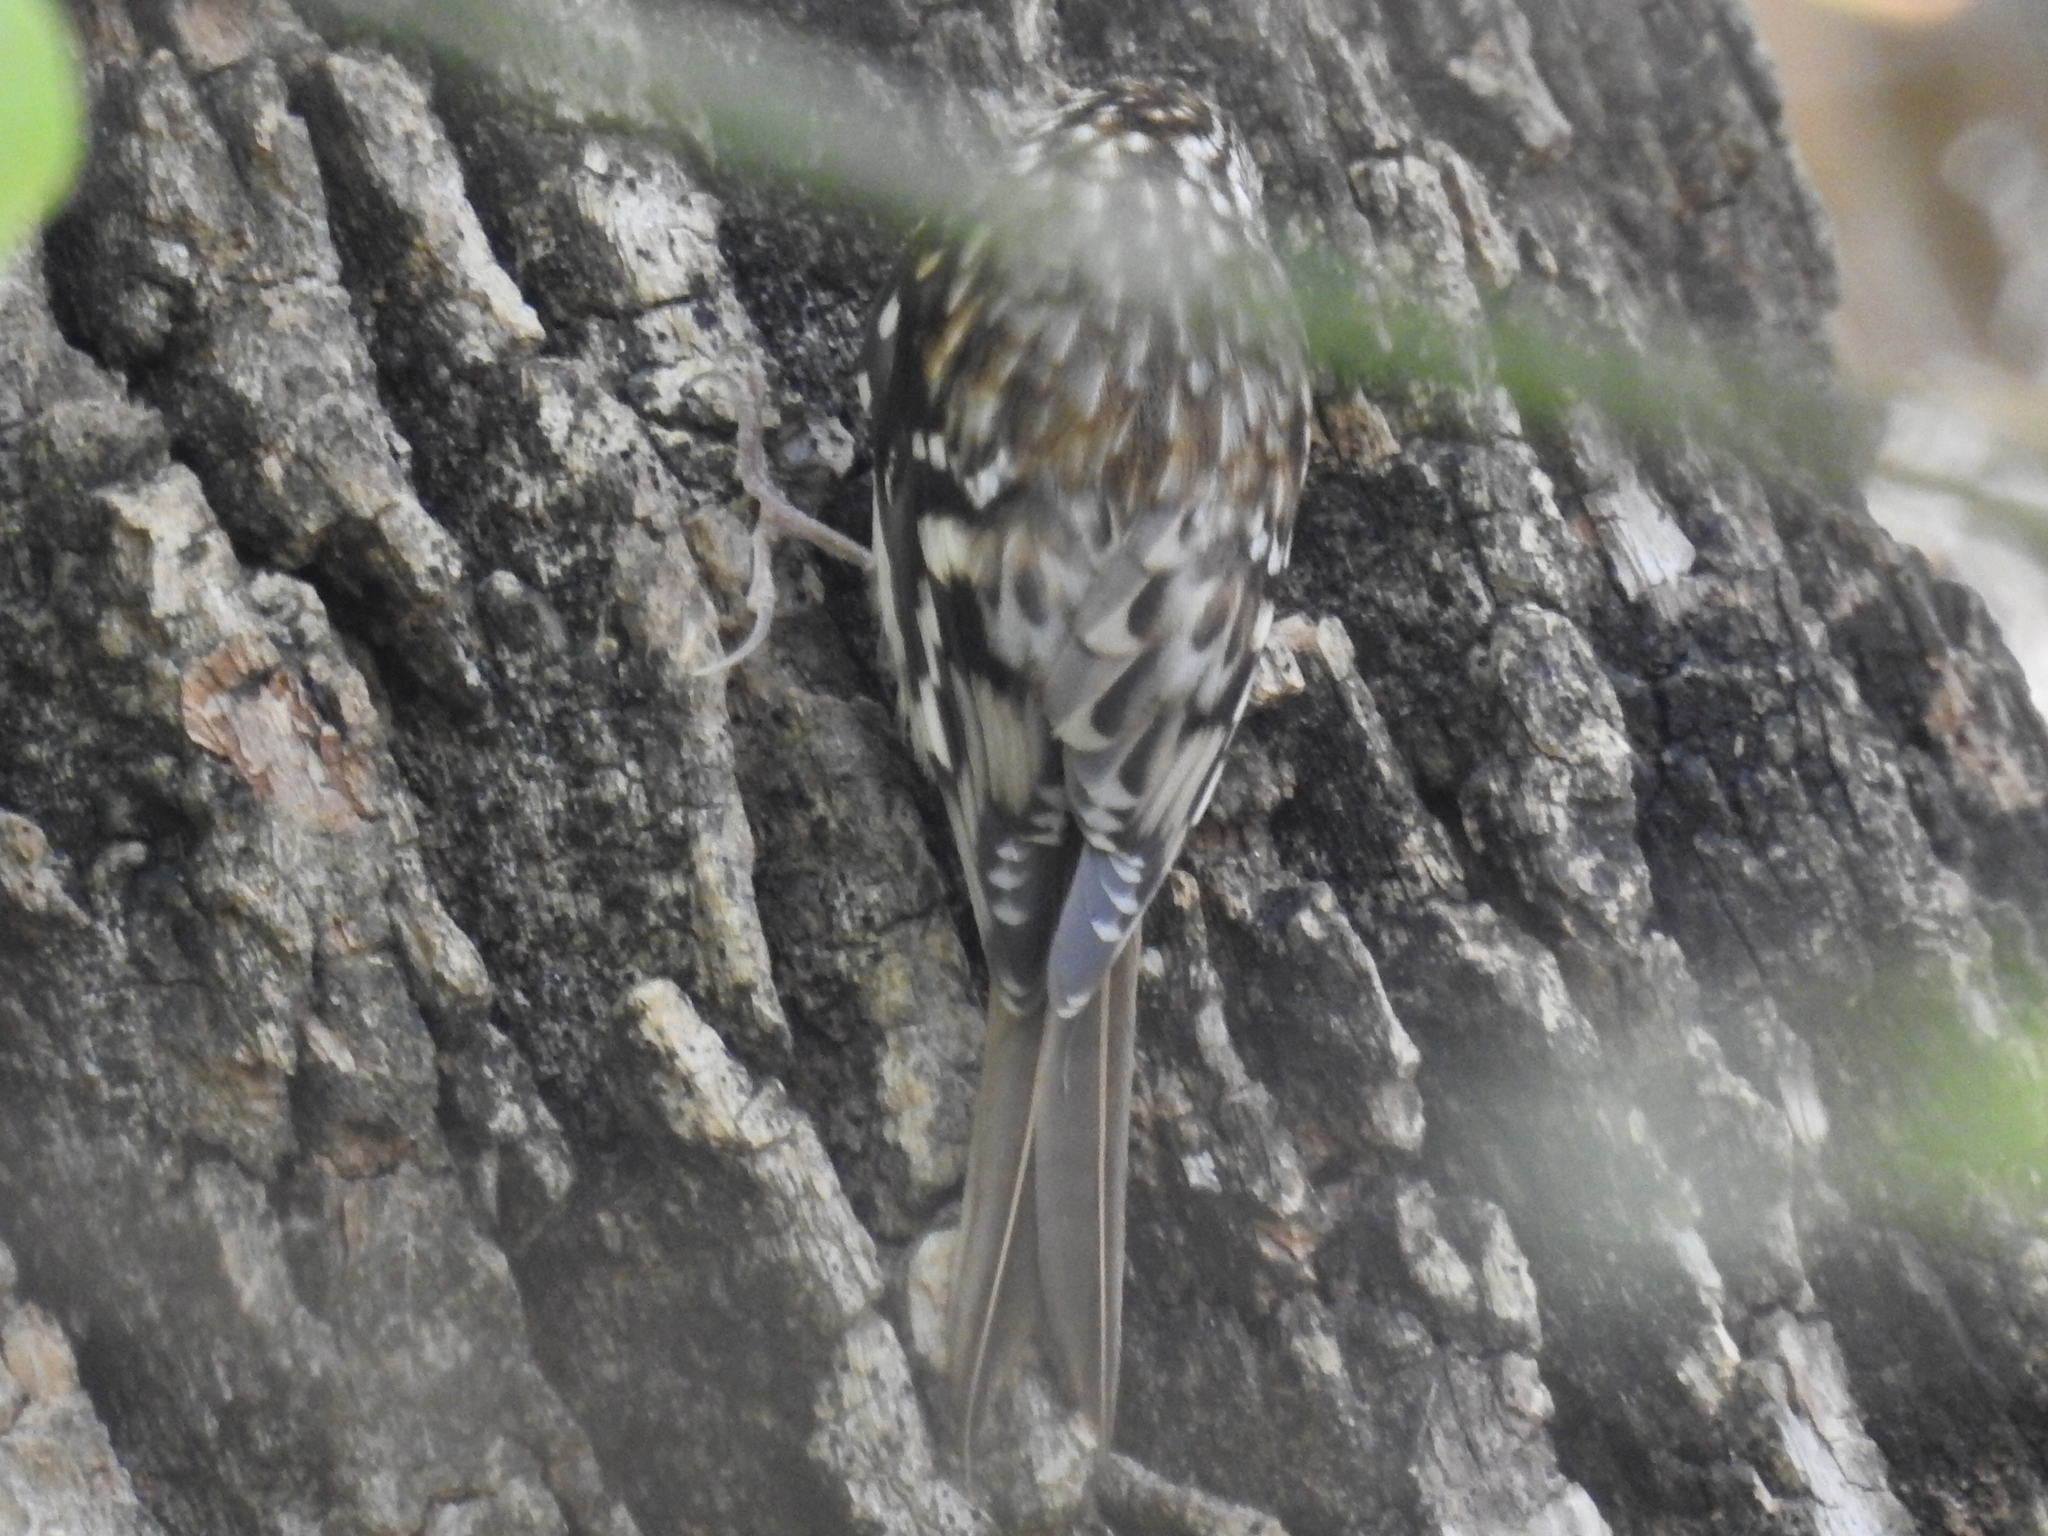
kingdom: Animalia
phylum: Chordata
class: Aves
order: Passeriformes
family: Certhiidae
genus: Certhia
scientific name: Certhia americana
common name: Brown creeper
